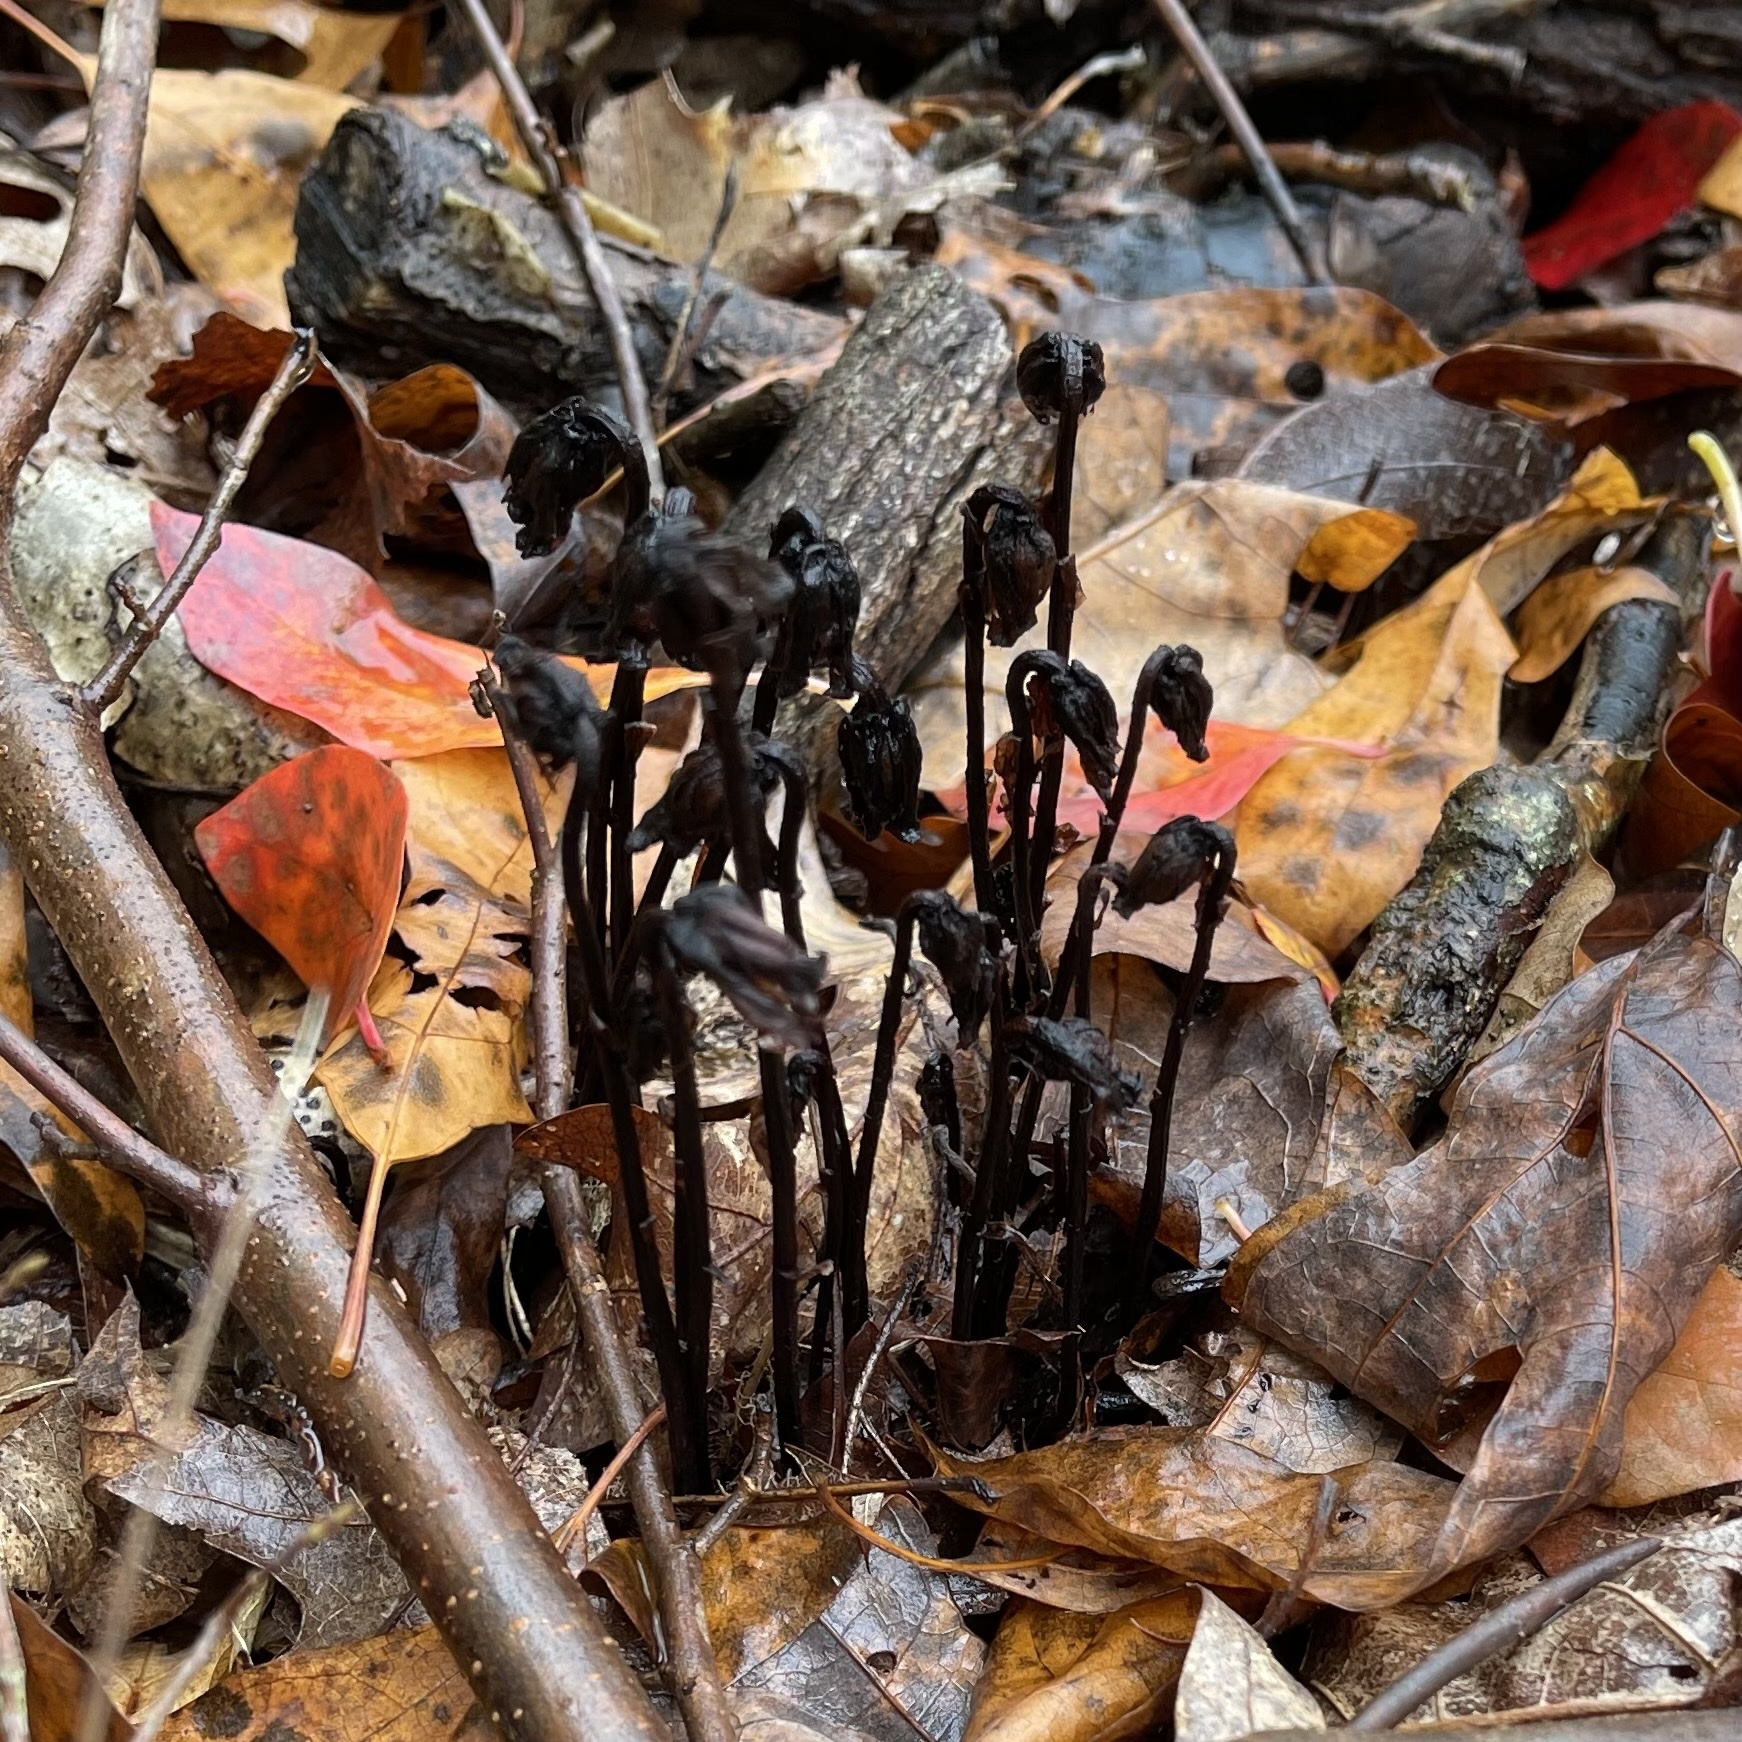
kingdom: Plantae
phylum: Tracheophyta
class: Magnoliopsida
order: Ericales
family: Ericaceae
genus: Monotropa
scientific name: Monotropa uniflora
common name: Convulsion root
